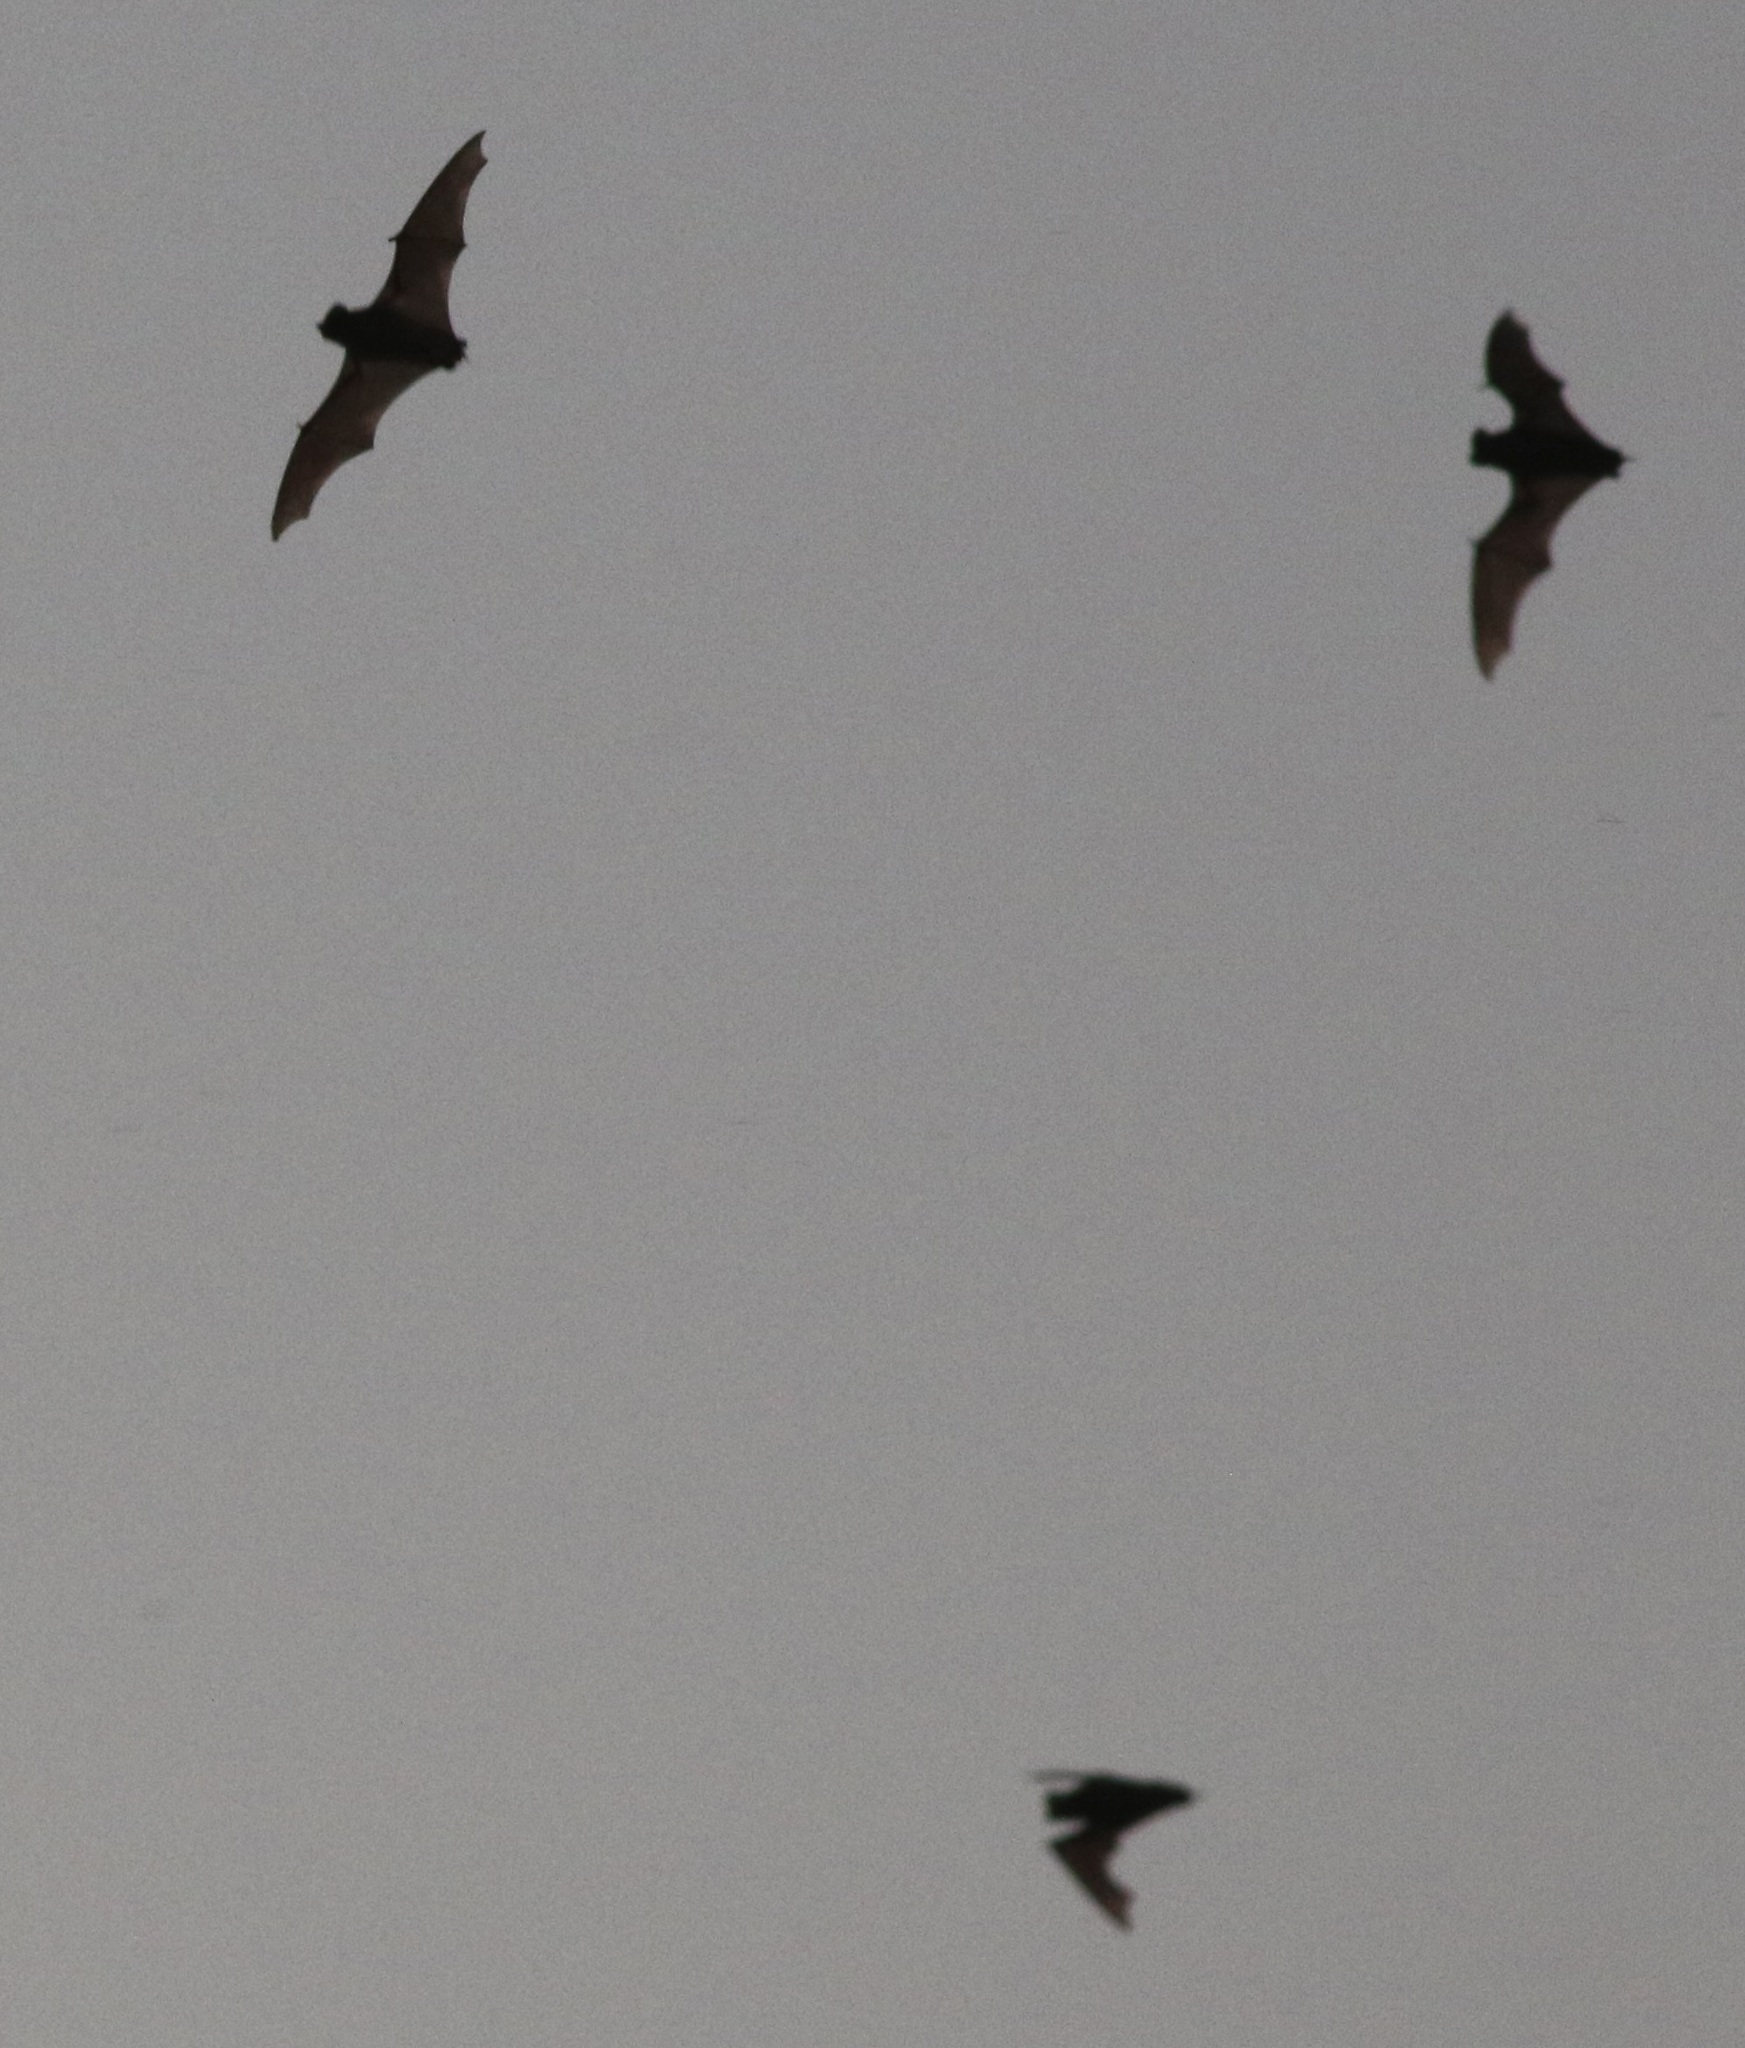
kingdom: Animalia
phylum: Chordata
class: Mammalia
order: Chiroptera
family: Molossidae
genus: Tadarida
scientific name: Tadarida brasiliensis
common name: Mexican free-tailed bat
